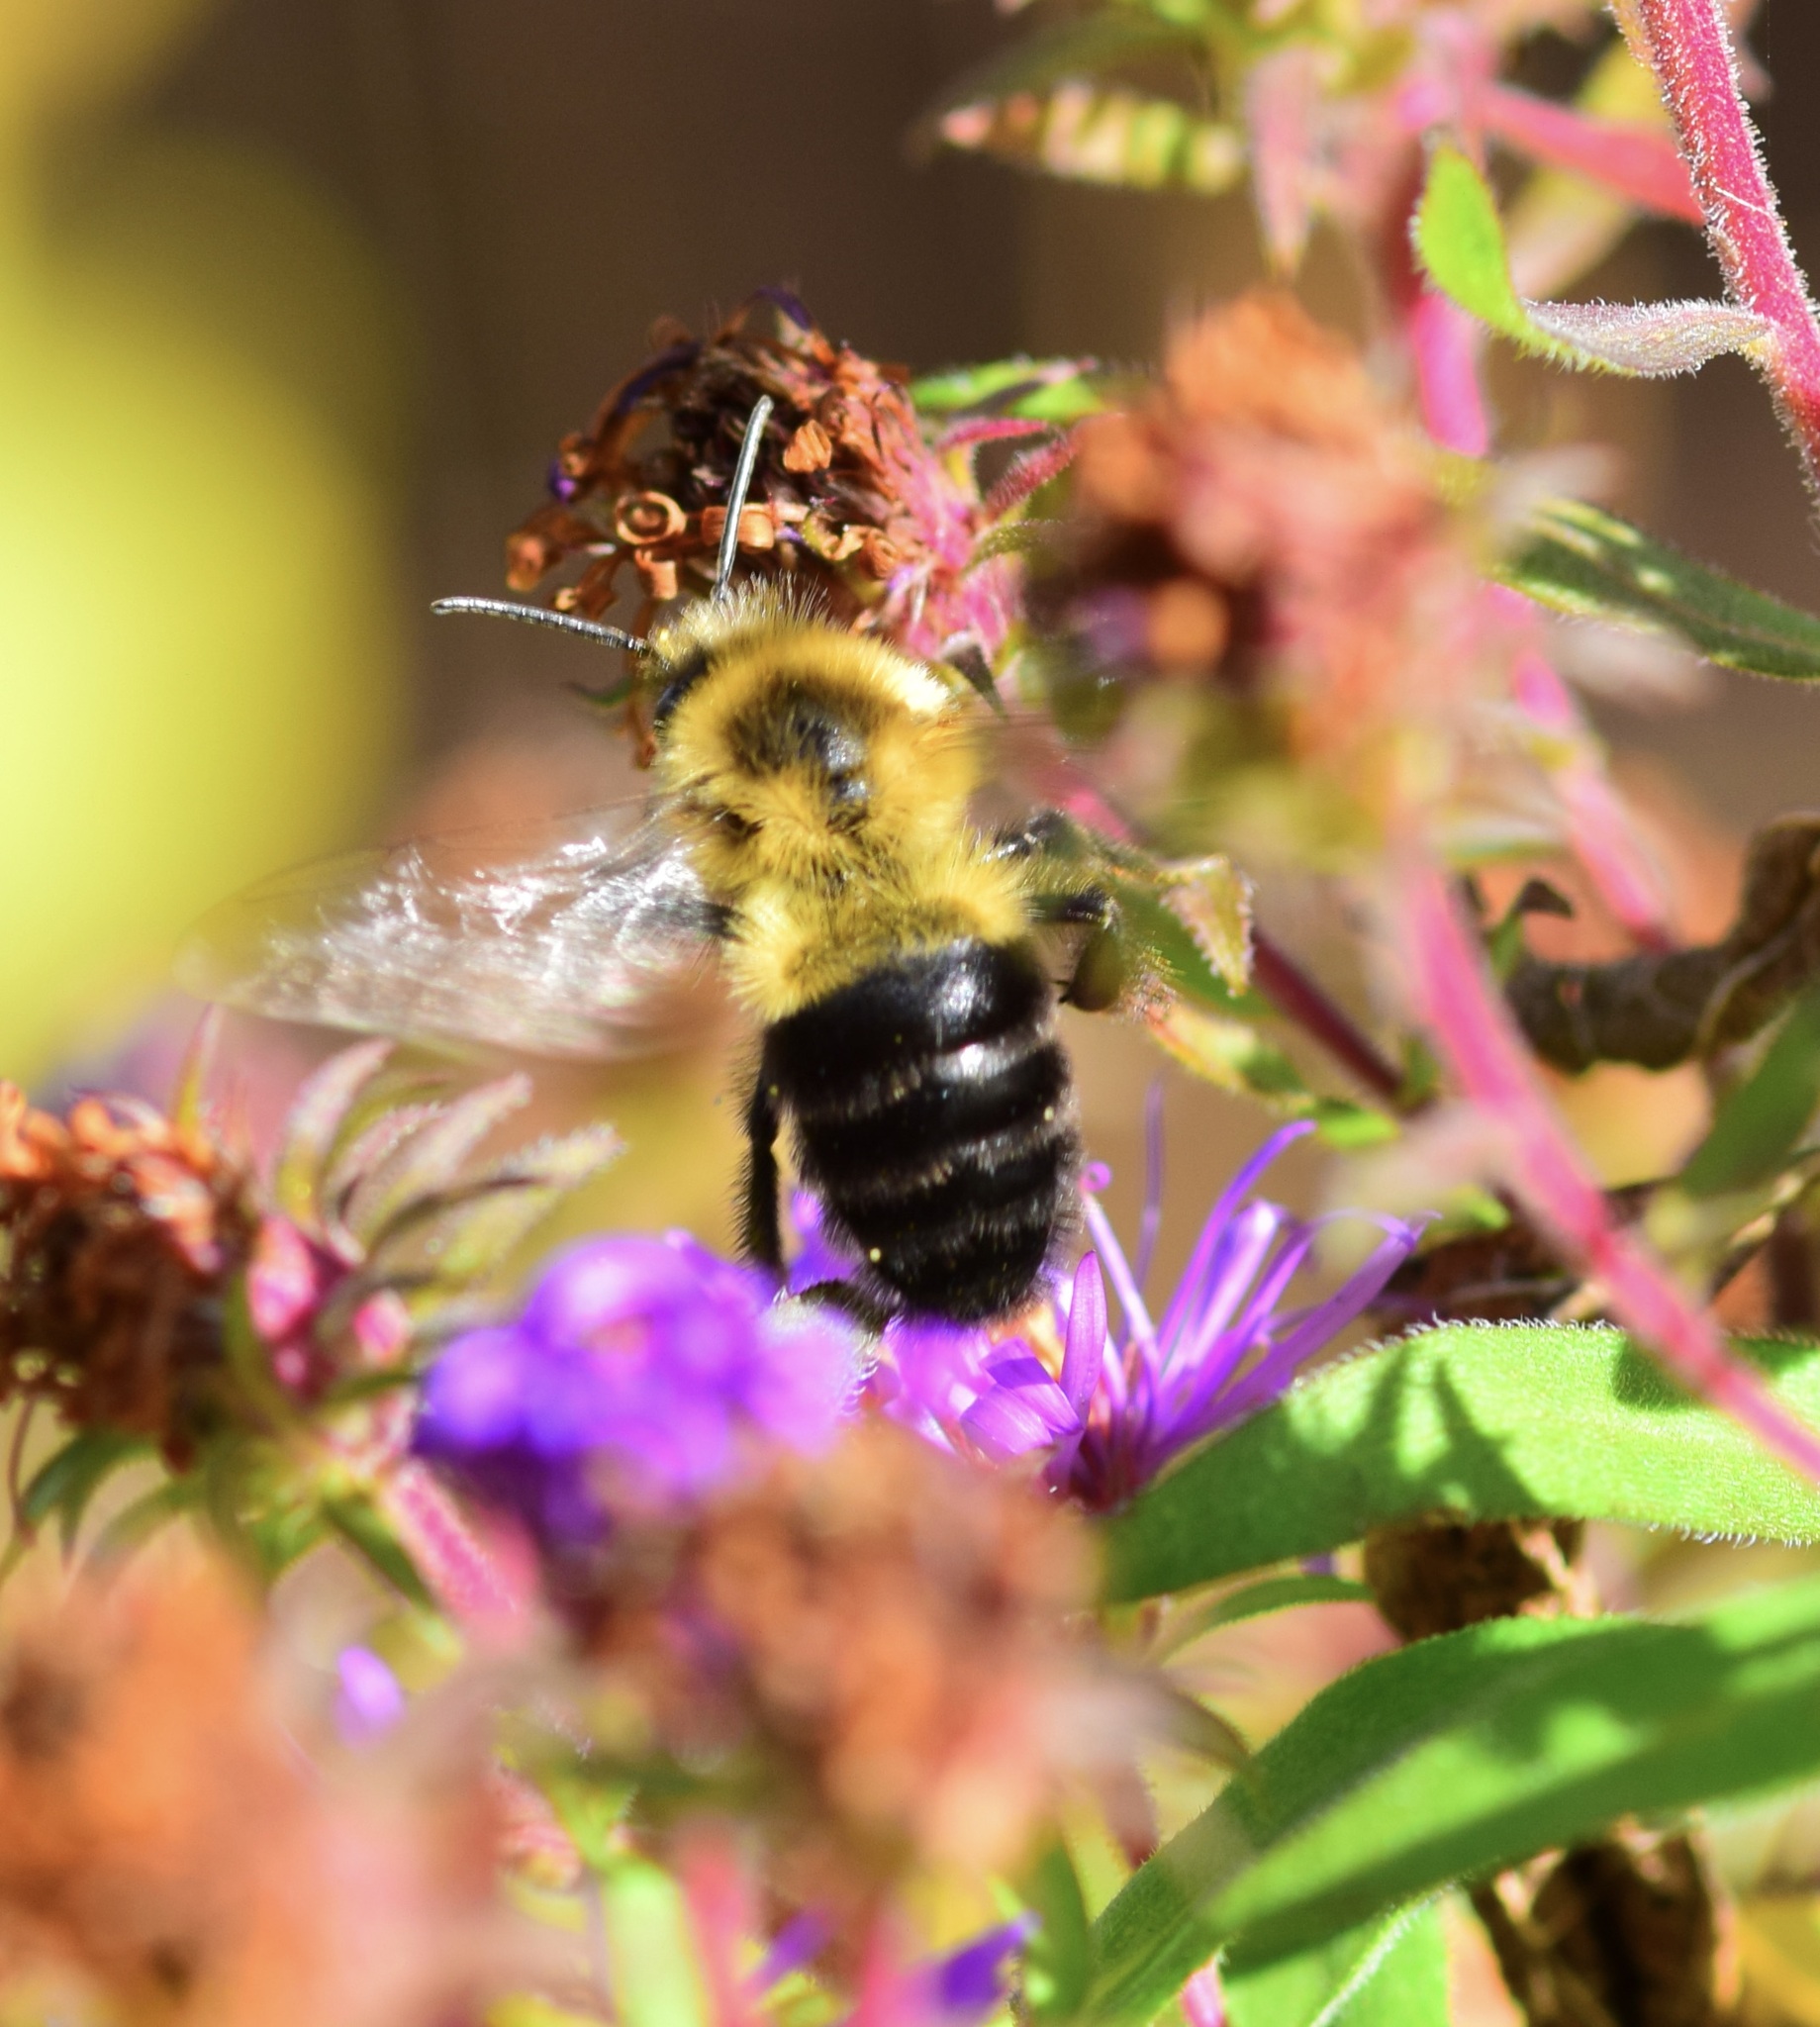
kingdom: Animalia
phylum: Arthropoda
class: Insecta
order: Hymenoptera
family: Apidae
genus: Bombus
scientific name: Bombus impatiens
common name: Common eastern bumble bee
